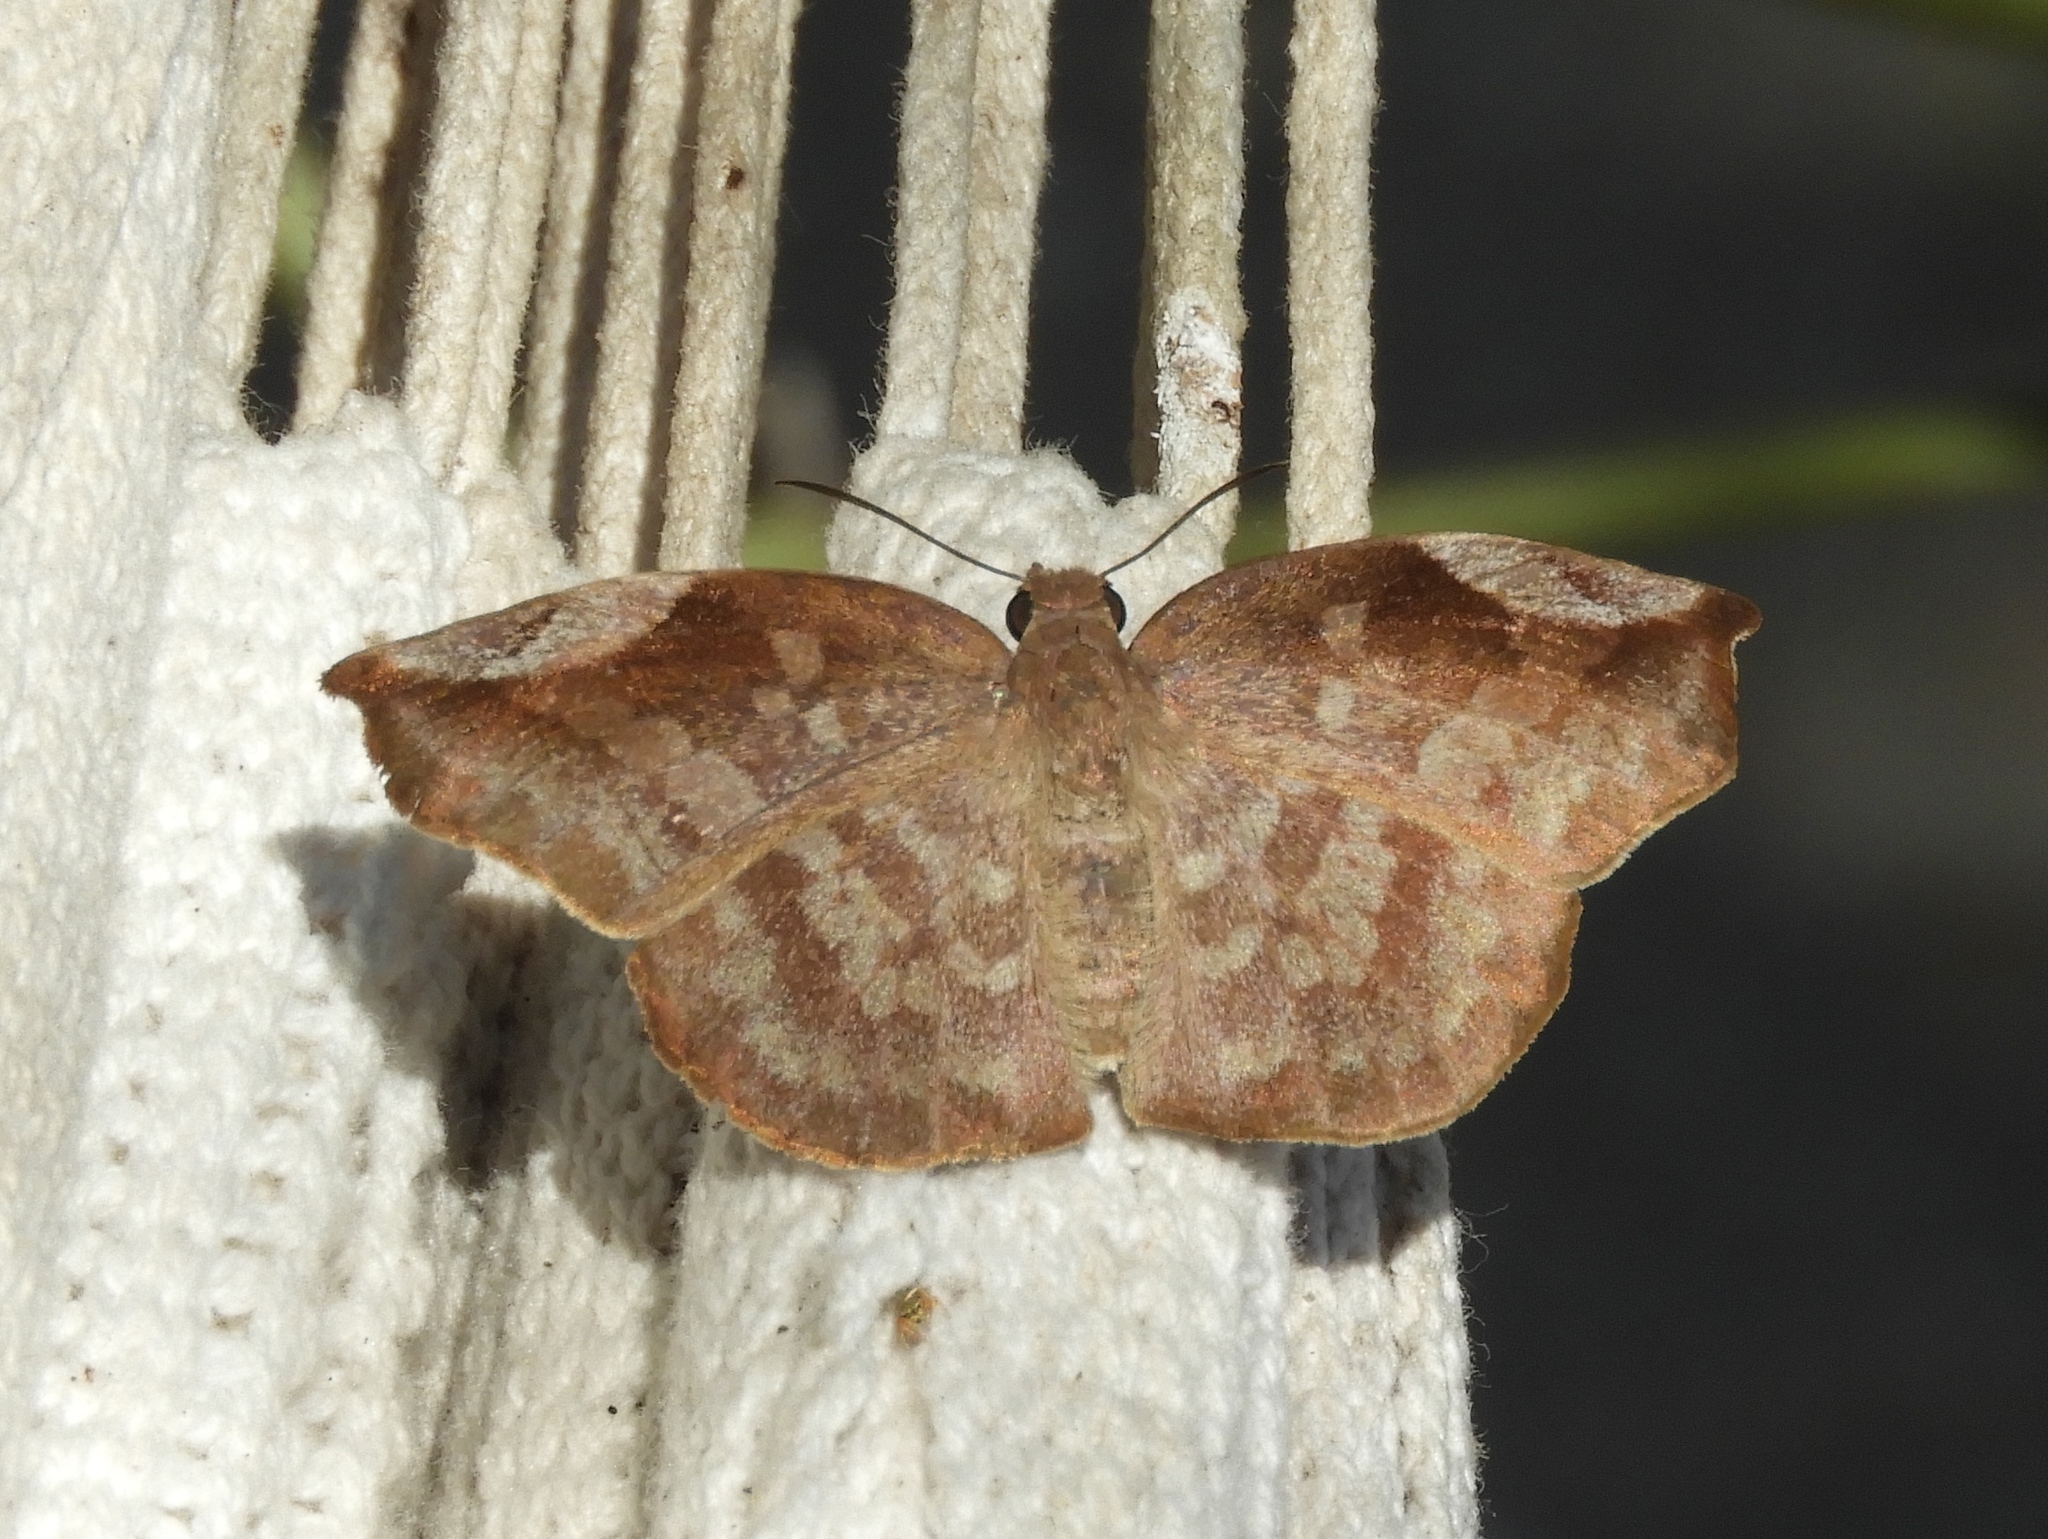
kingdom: Animalia
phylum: Arthropoda
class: Insecta
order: Lepidoptera
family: Hesperiidae
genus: Achlyodes
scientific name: Achlyodes thraso
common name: Sickle-winged skipper
